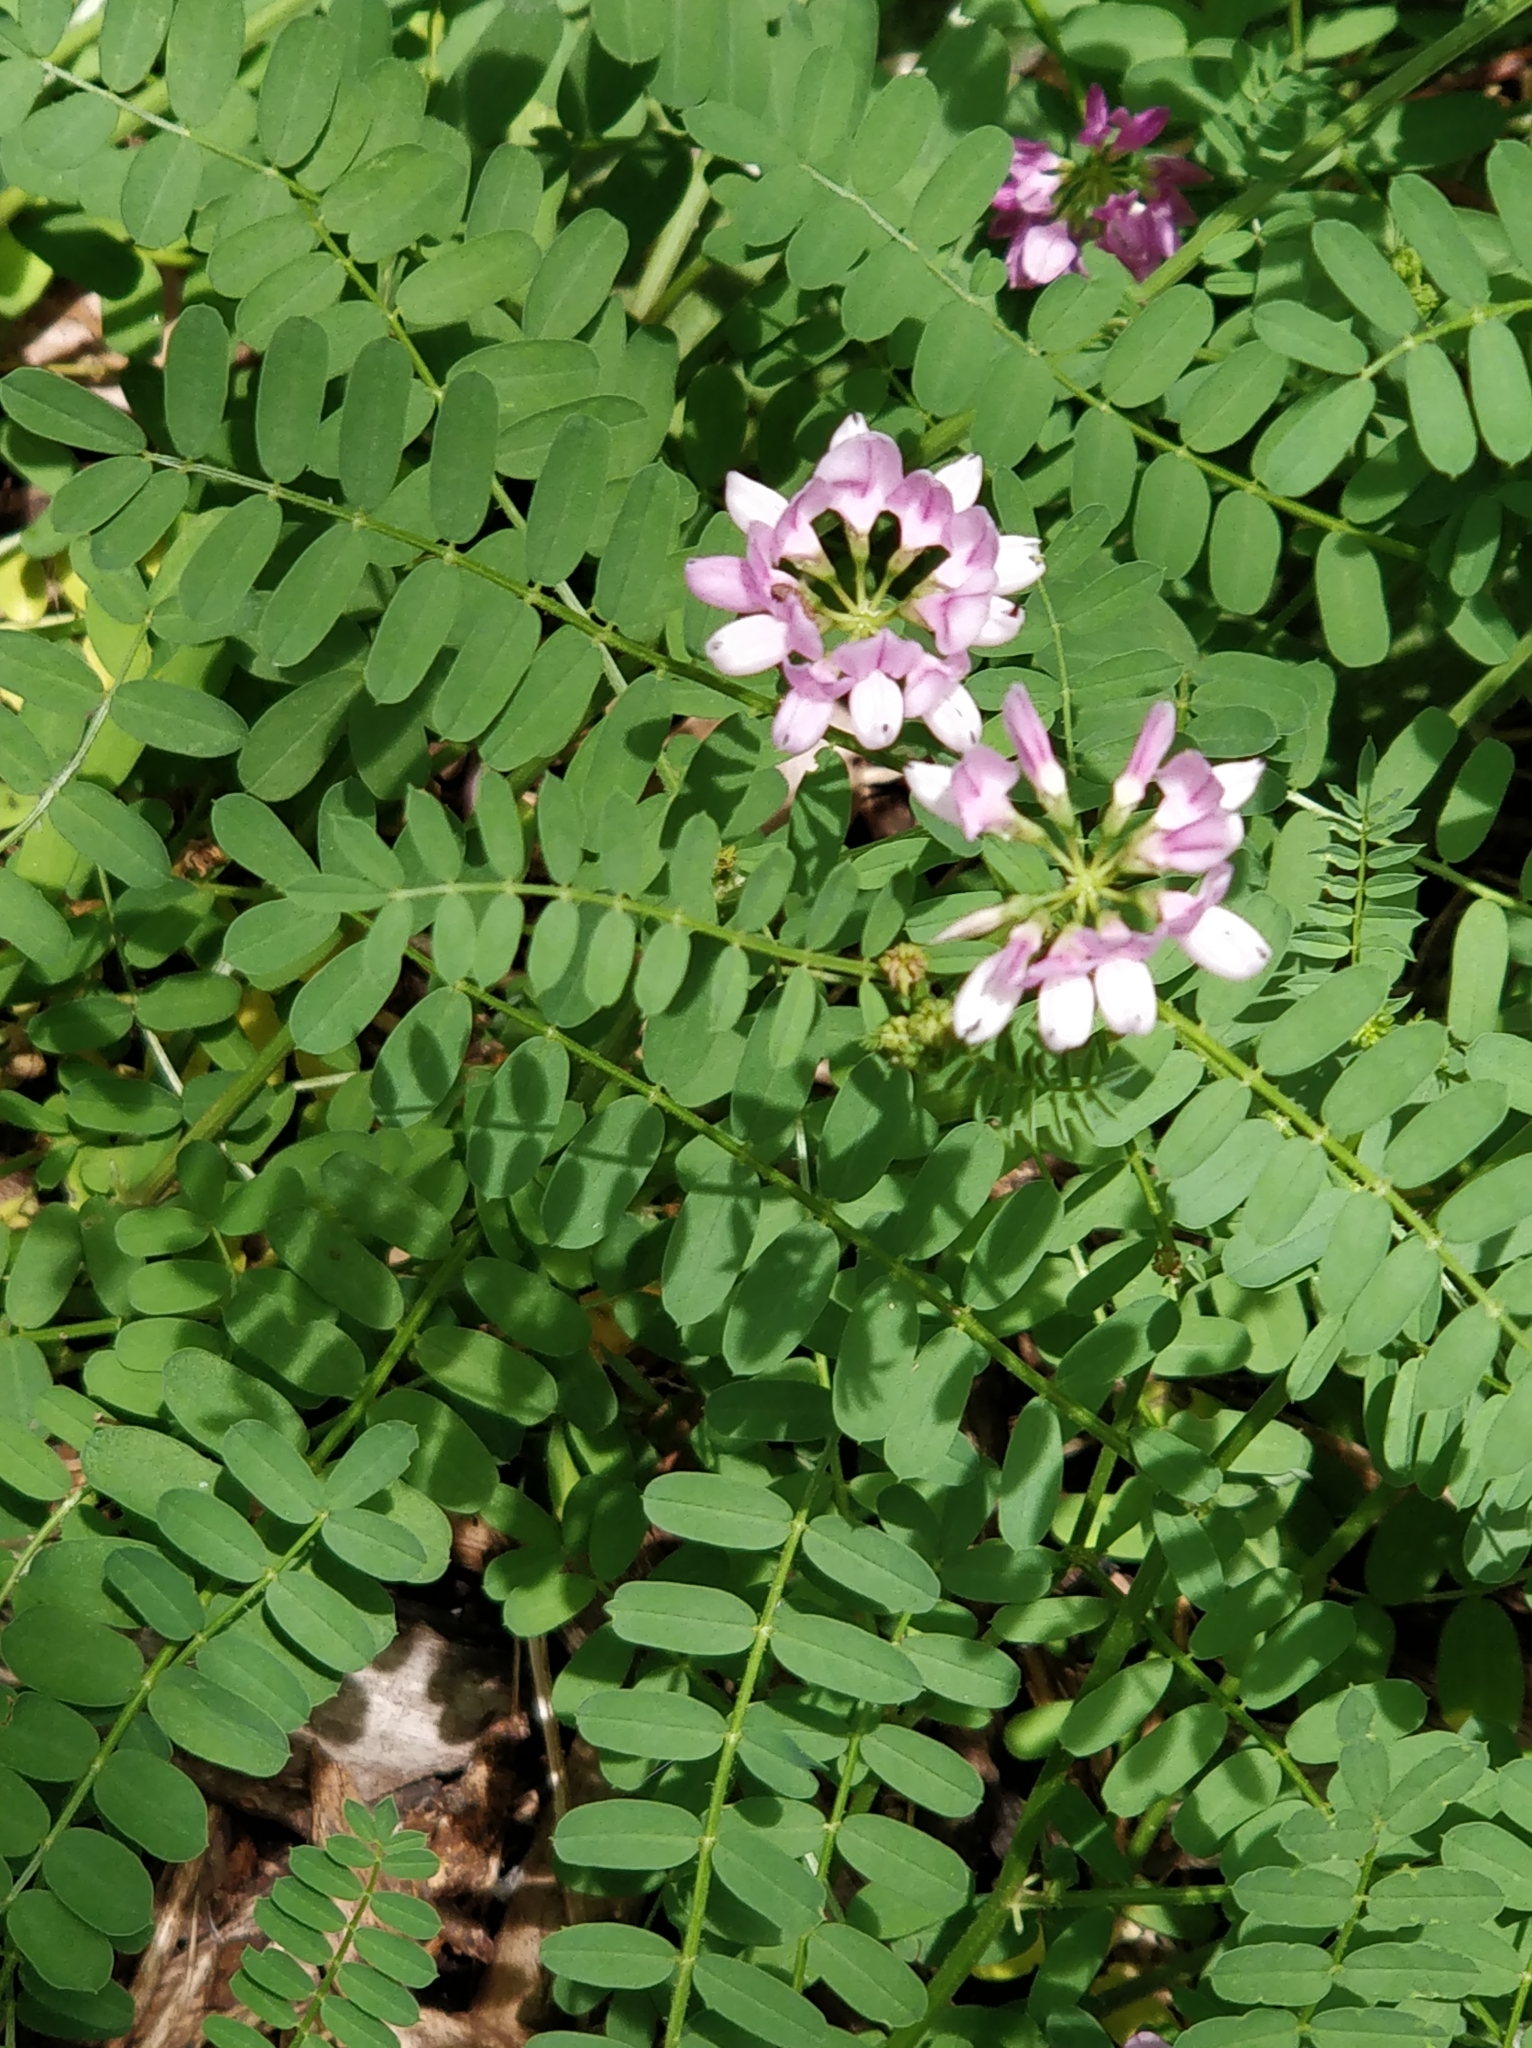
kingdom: Plantae
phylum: Tracheophyta
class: Magnoliopsida
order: Fabales
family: Fabaceae
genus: Coronilla
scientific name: Coronilla varia
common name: Crownvetch
